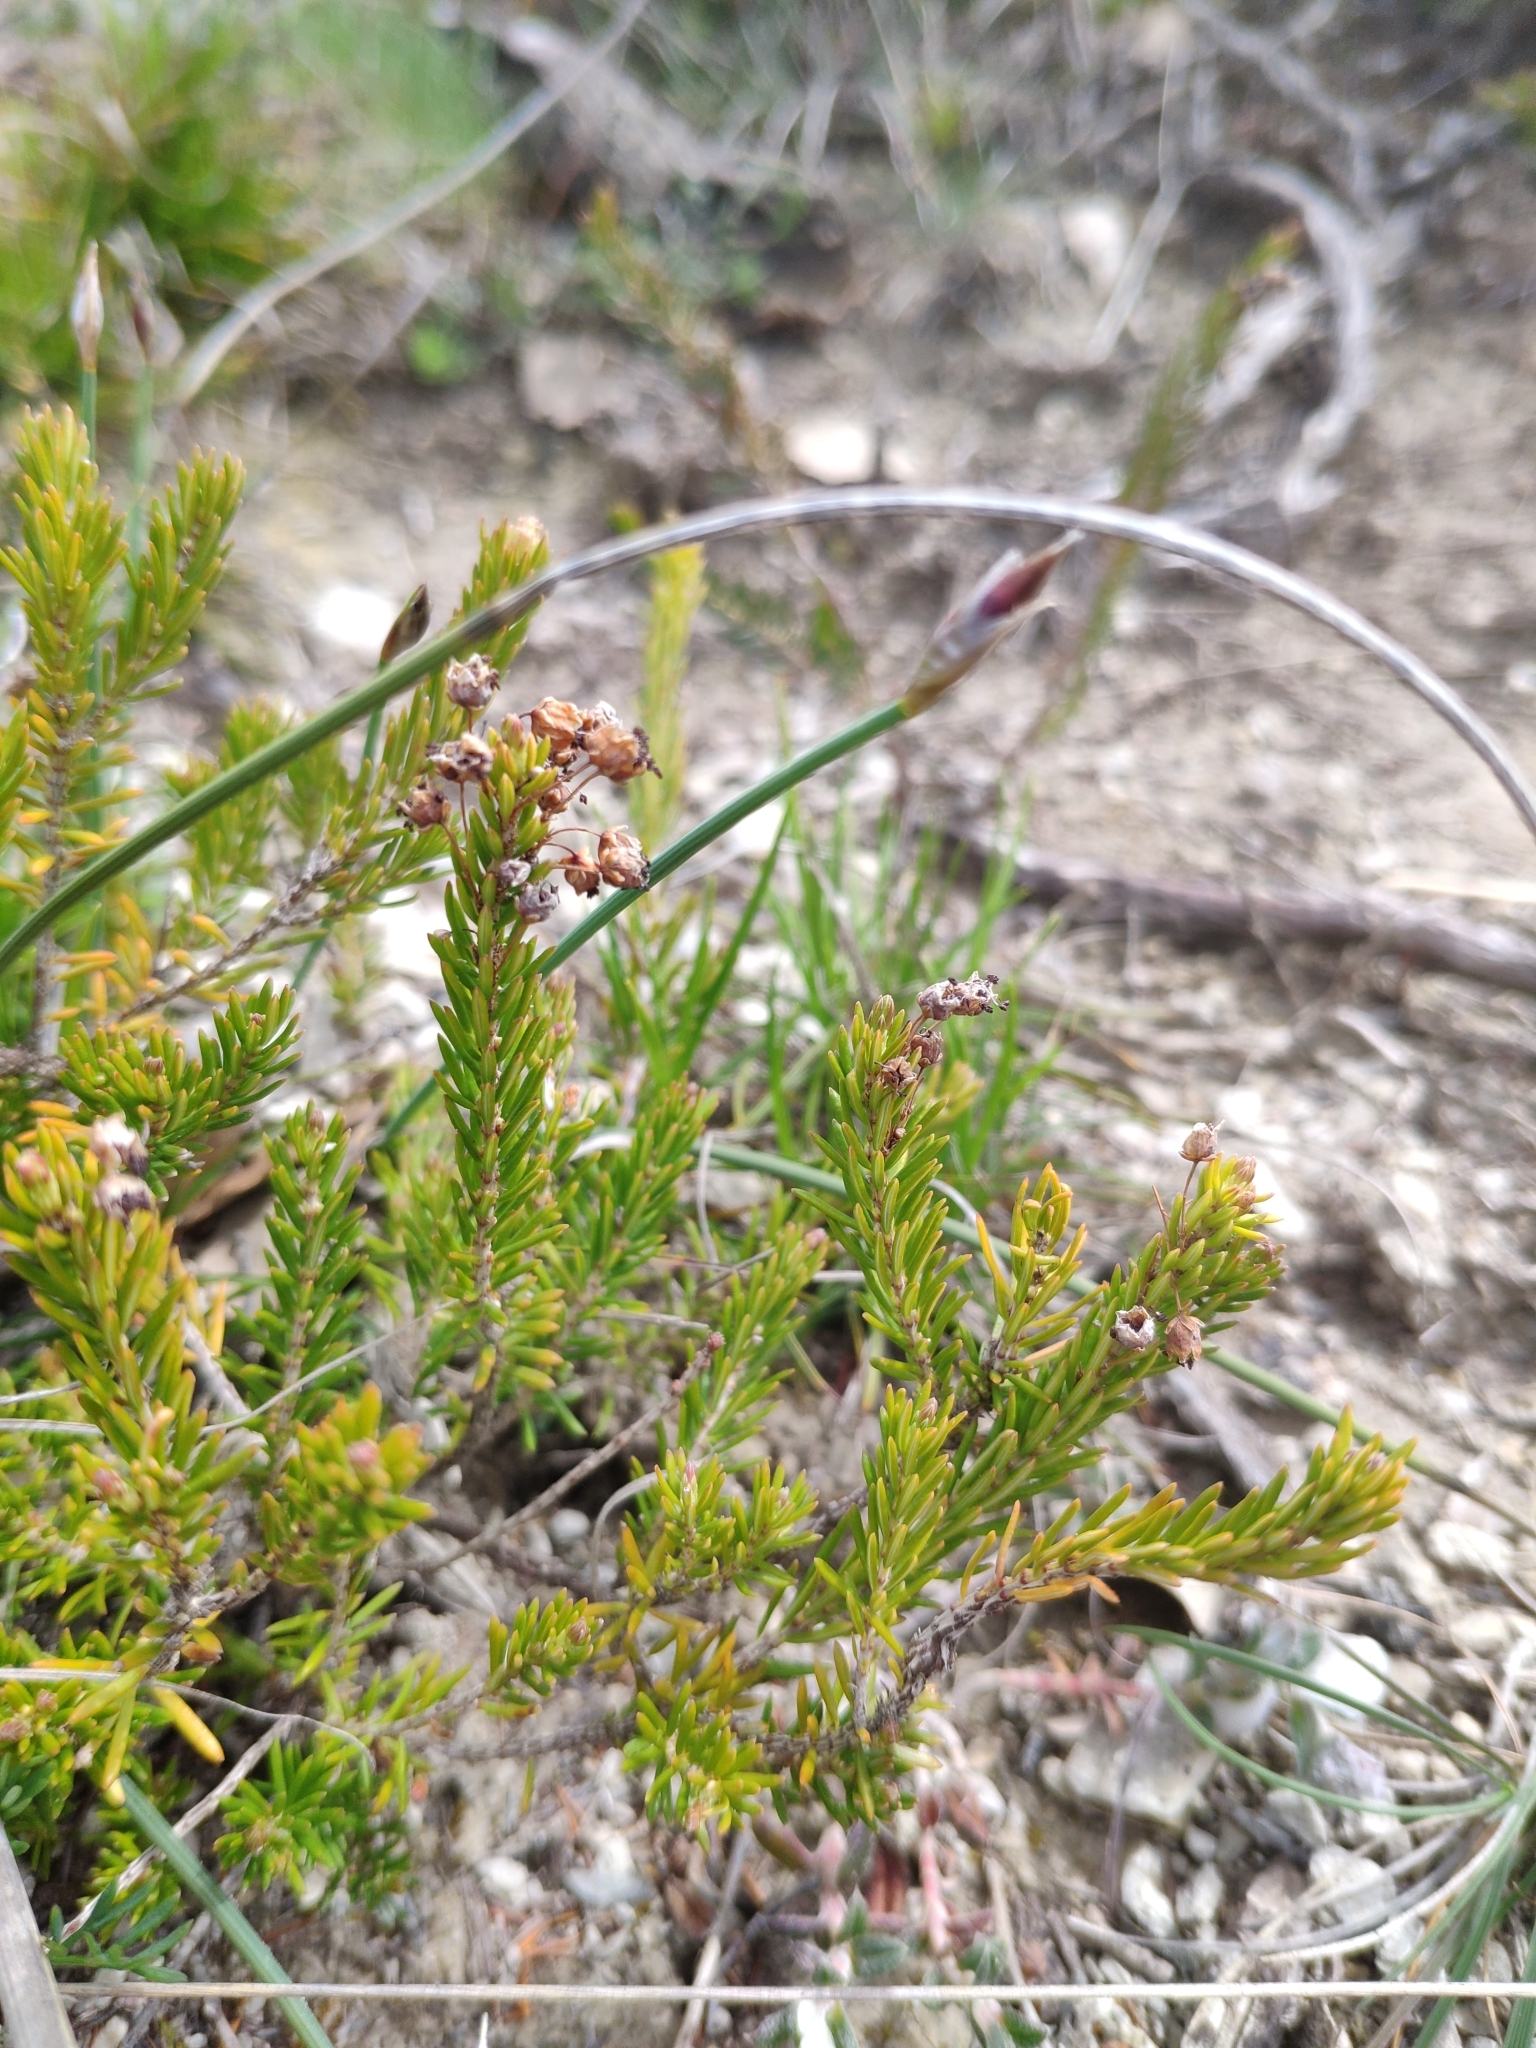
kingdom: Plantae
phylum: Tracheophyta
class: Magnoliopsida
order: Ericales
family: Ericaceae
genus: Erica
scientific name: Erica vagans
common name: Cornish heath
